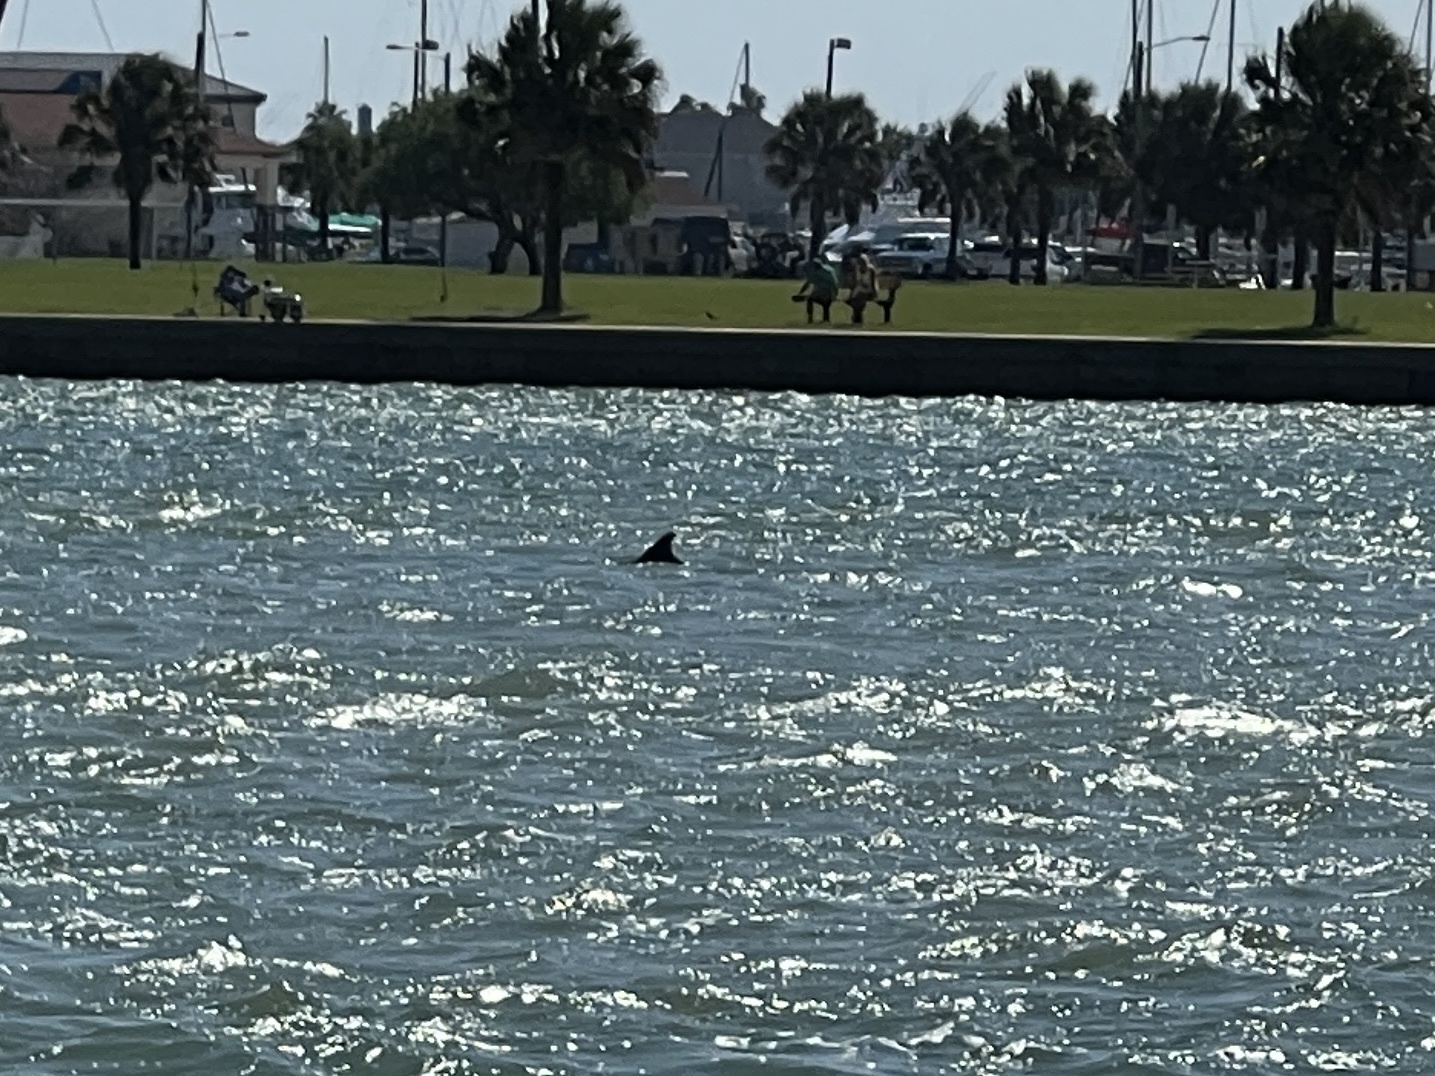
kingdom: Animalia
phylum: Chordata
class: Mammalia
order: Cetacea
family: Delphinidae
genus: Tursiops
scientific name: Tursiops truncatus
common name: Bottlenose dolphin
